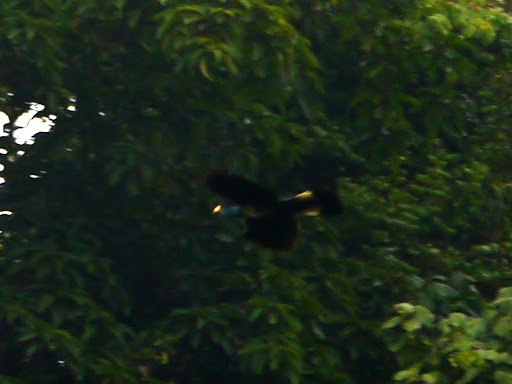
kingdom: Animalia
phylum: Chordata
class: Aves
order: Musophagiformes
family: Musophagidae
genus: Corythaeola
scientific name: Corythaeola cristata
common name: Great blue turaco
